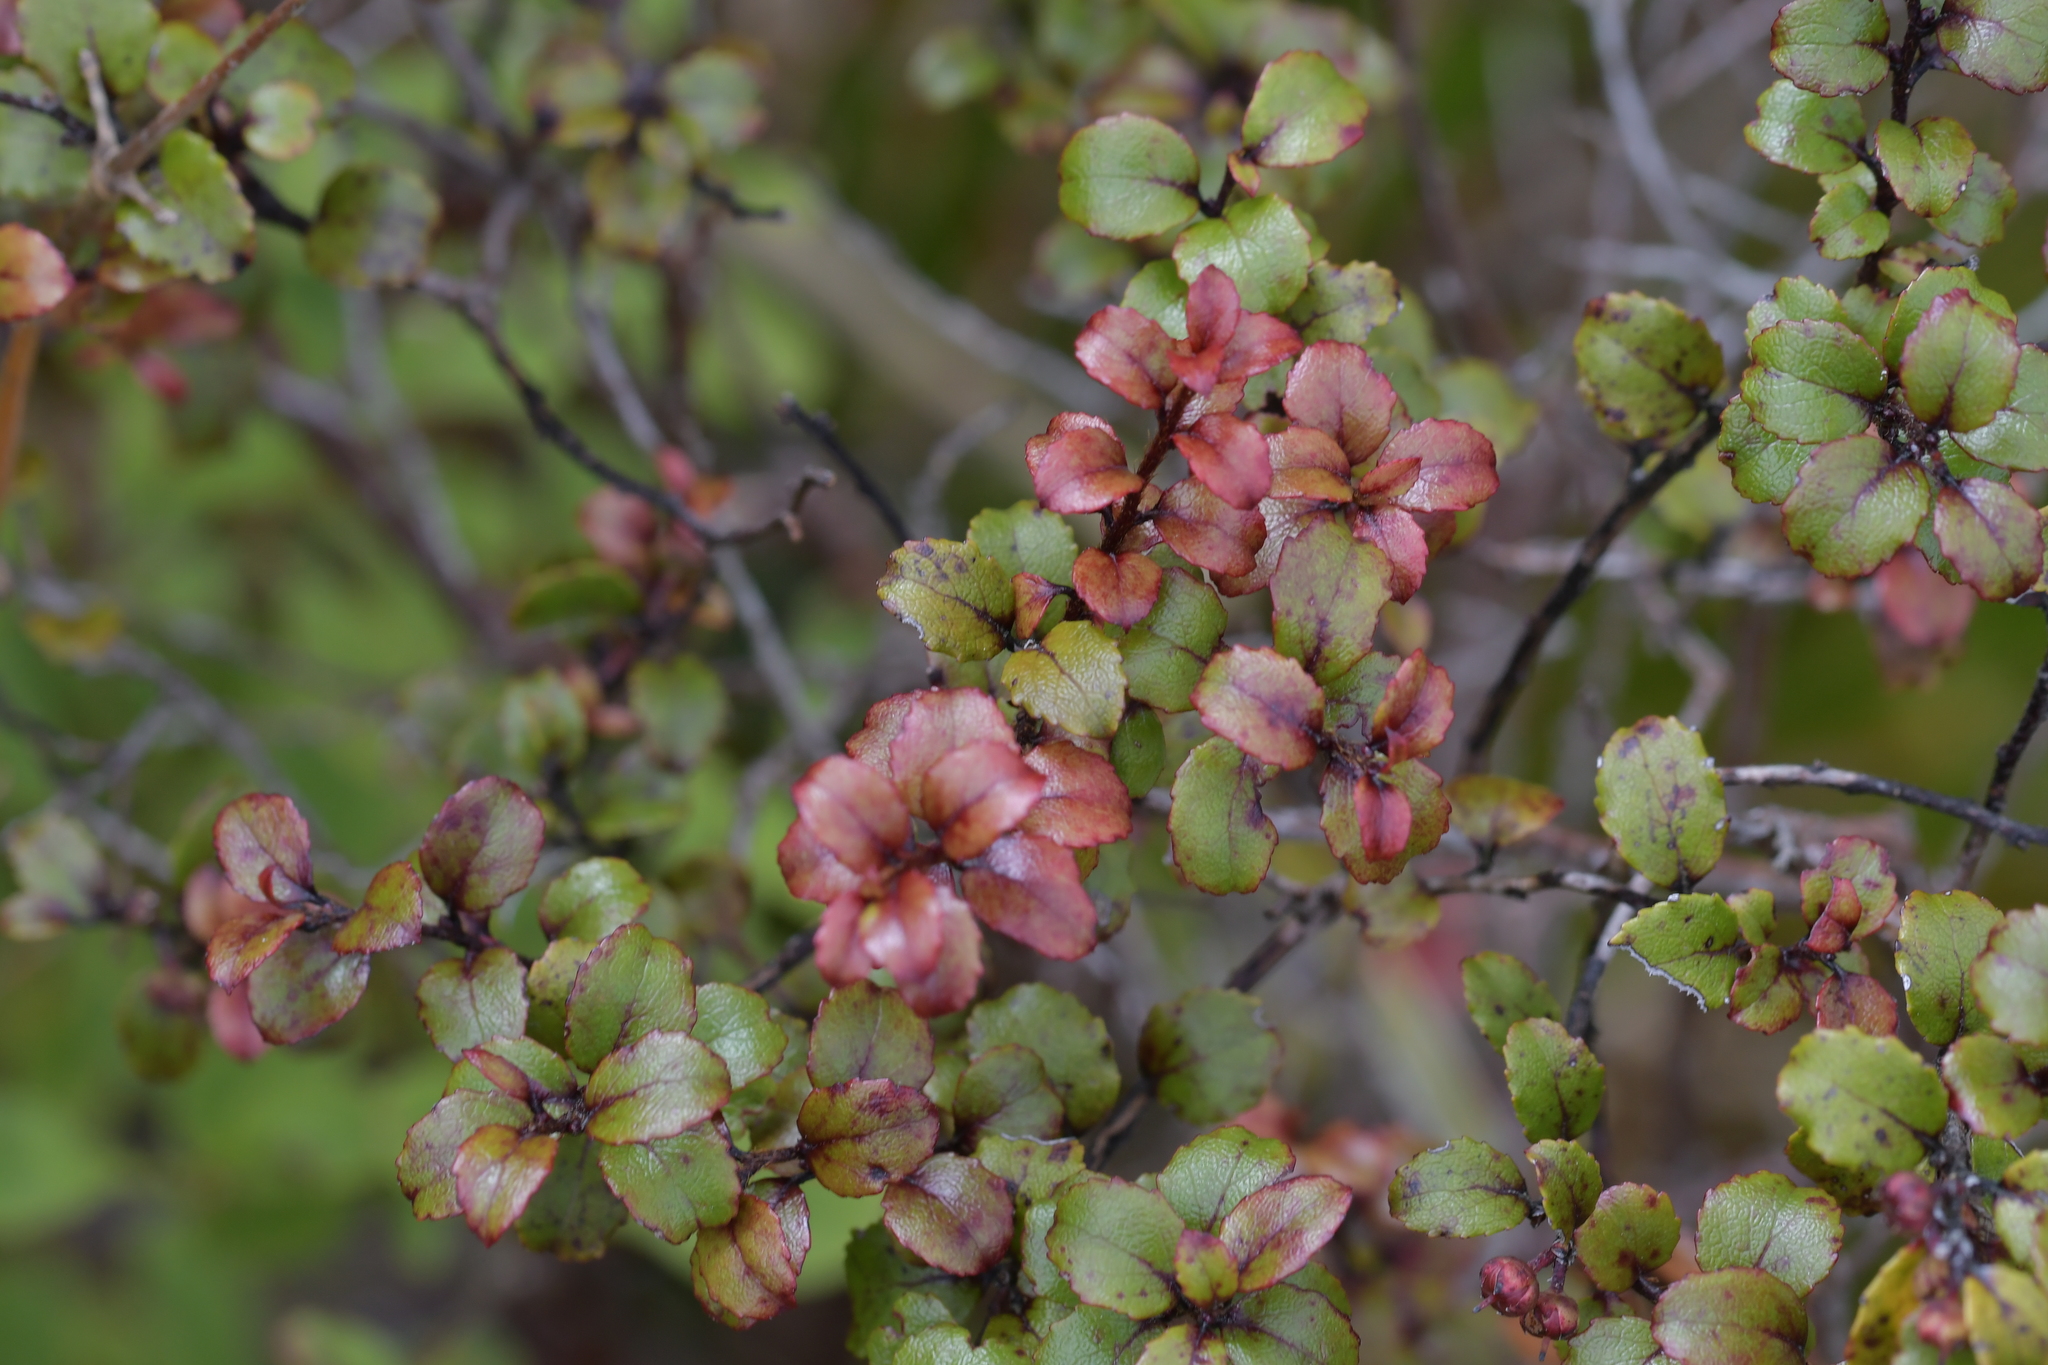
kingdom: Plantae
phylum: Tracheophyta
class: Magnoliopsida
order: Ericales
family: Ericaceae
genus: Gaultheria
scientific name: Gaultheria antipoda
